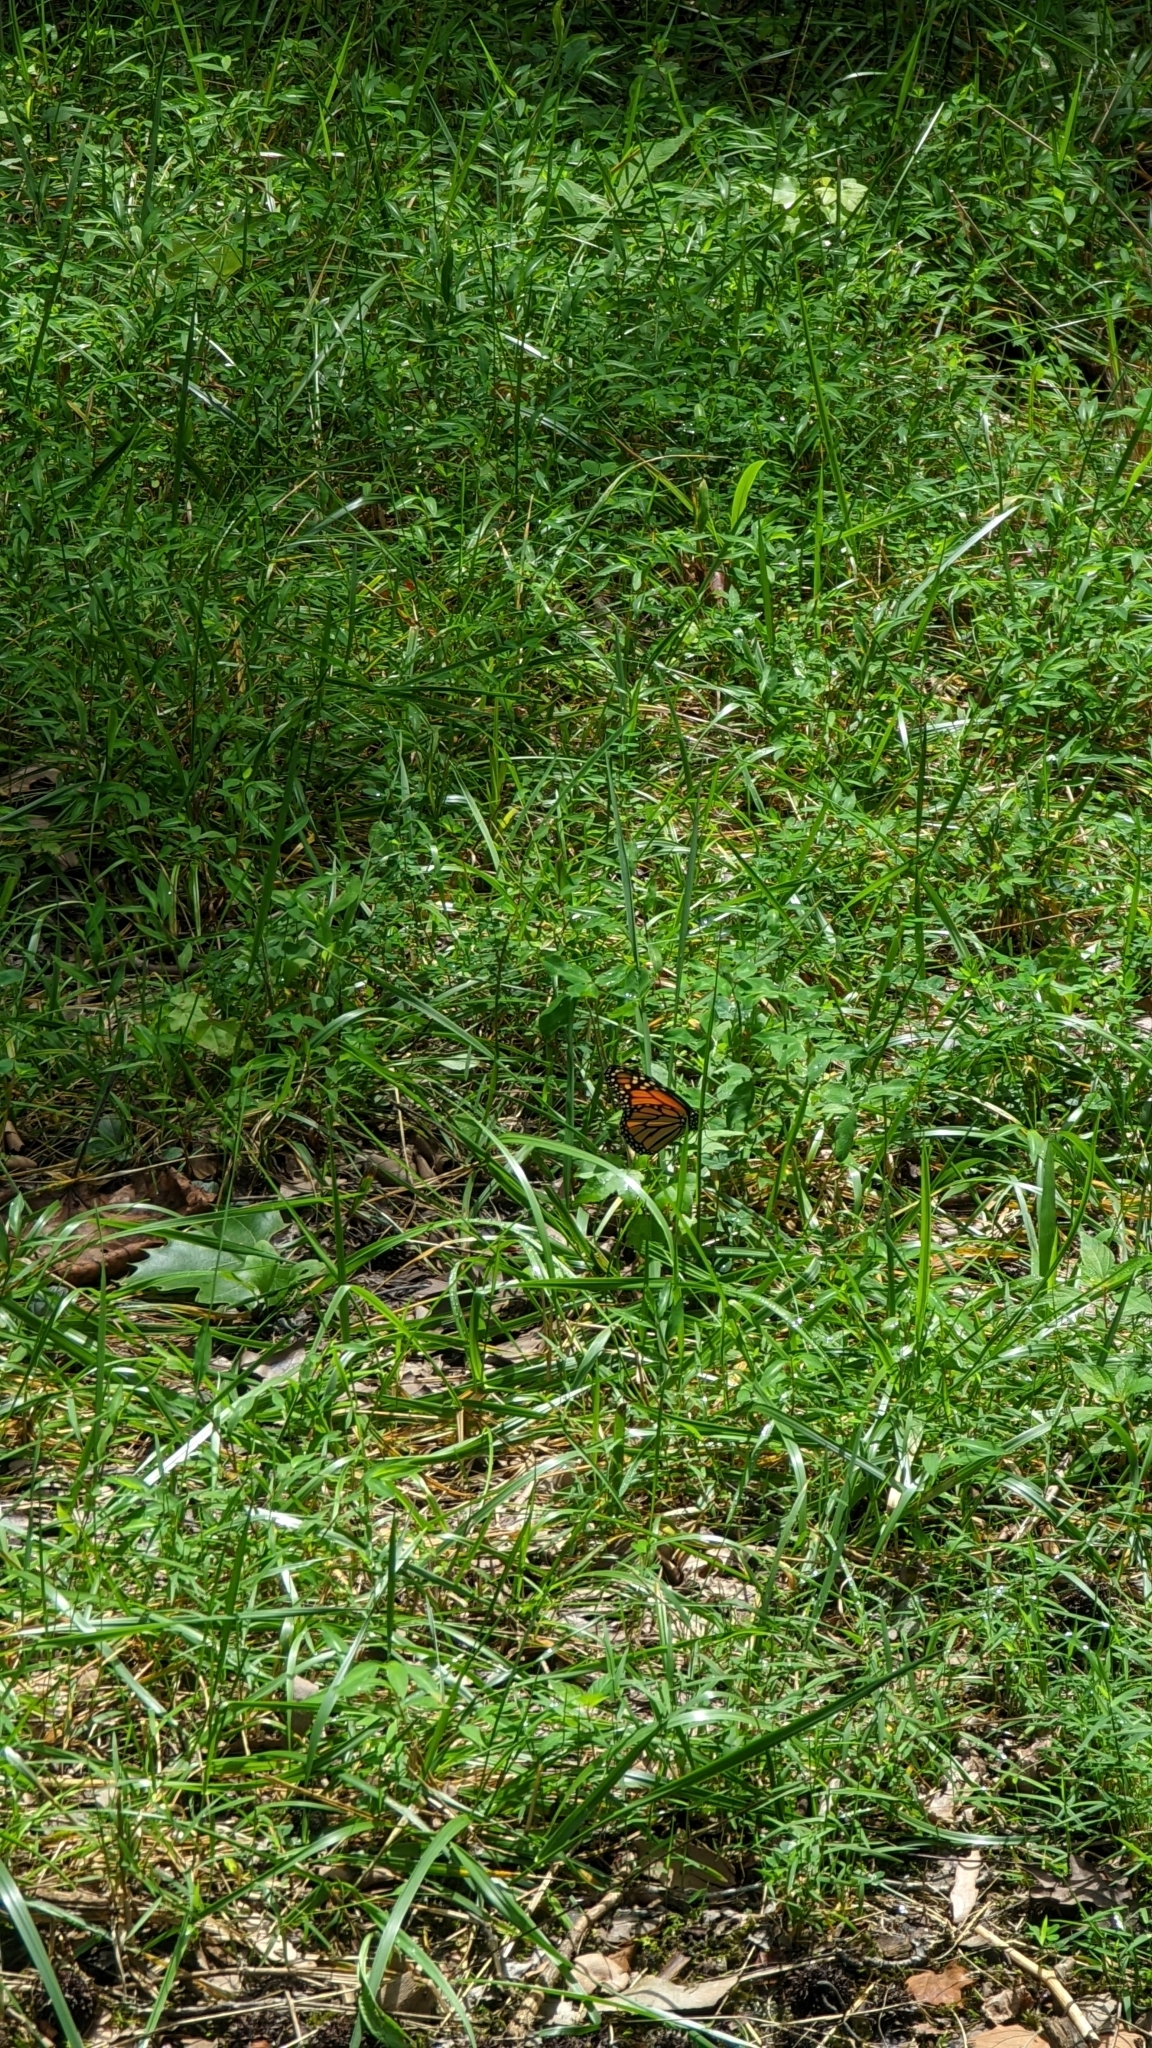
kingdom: Animalia
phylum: Arthropoda
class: Insecta
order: Lepidoptera
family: Nymphalidae
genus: Danaus
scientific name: Danaus plexippus
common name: Monarch
